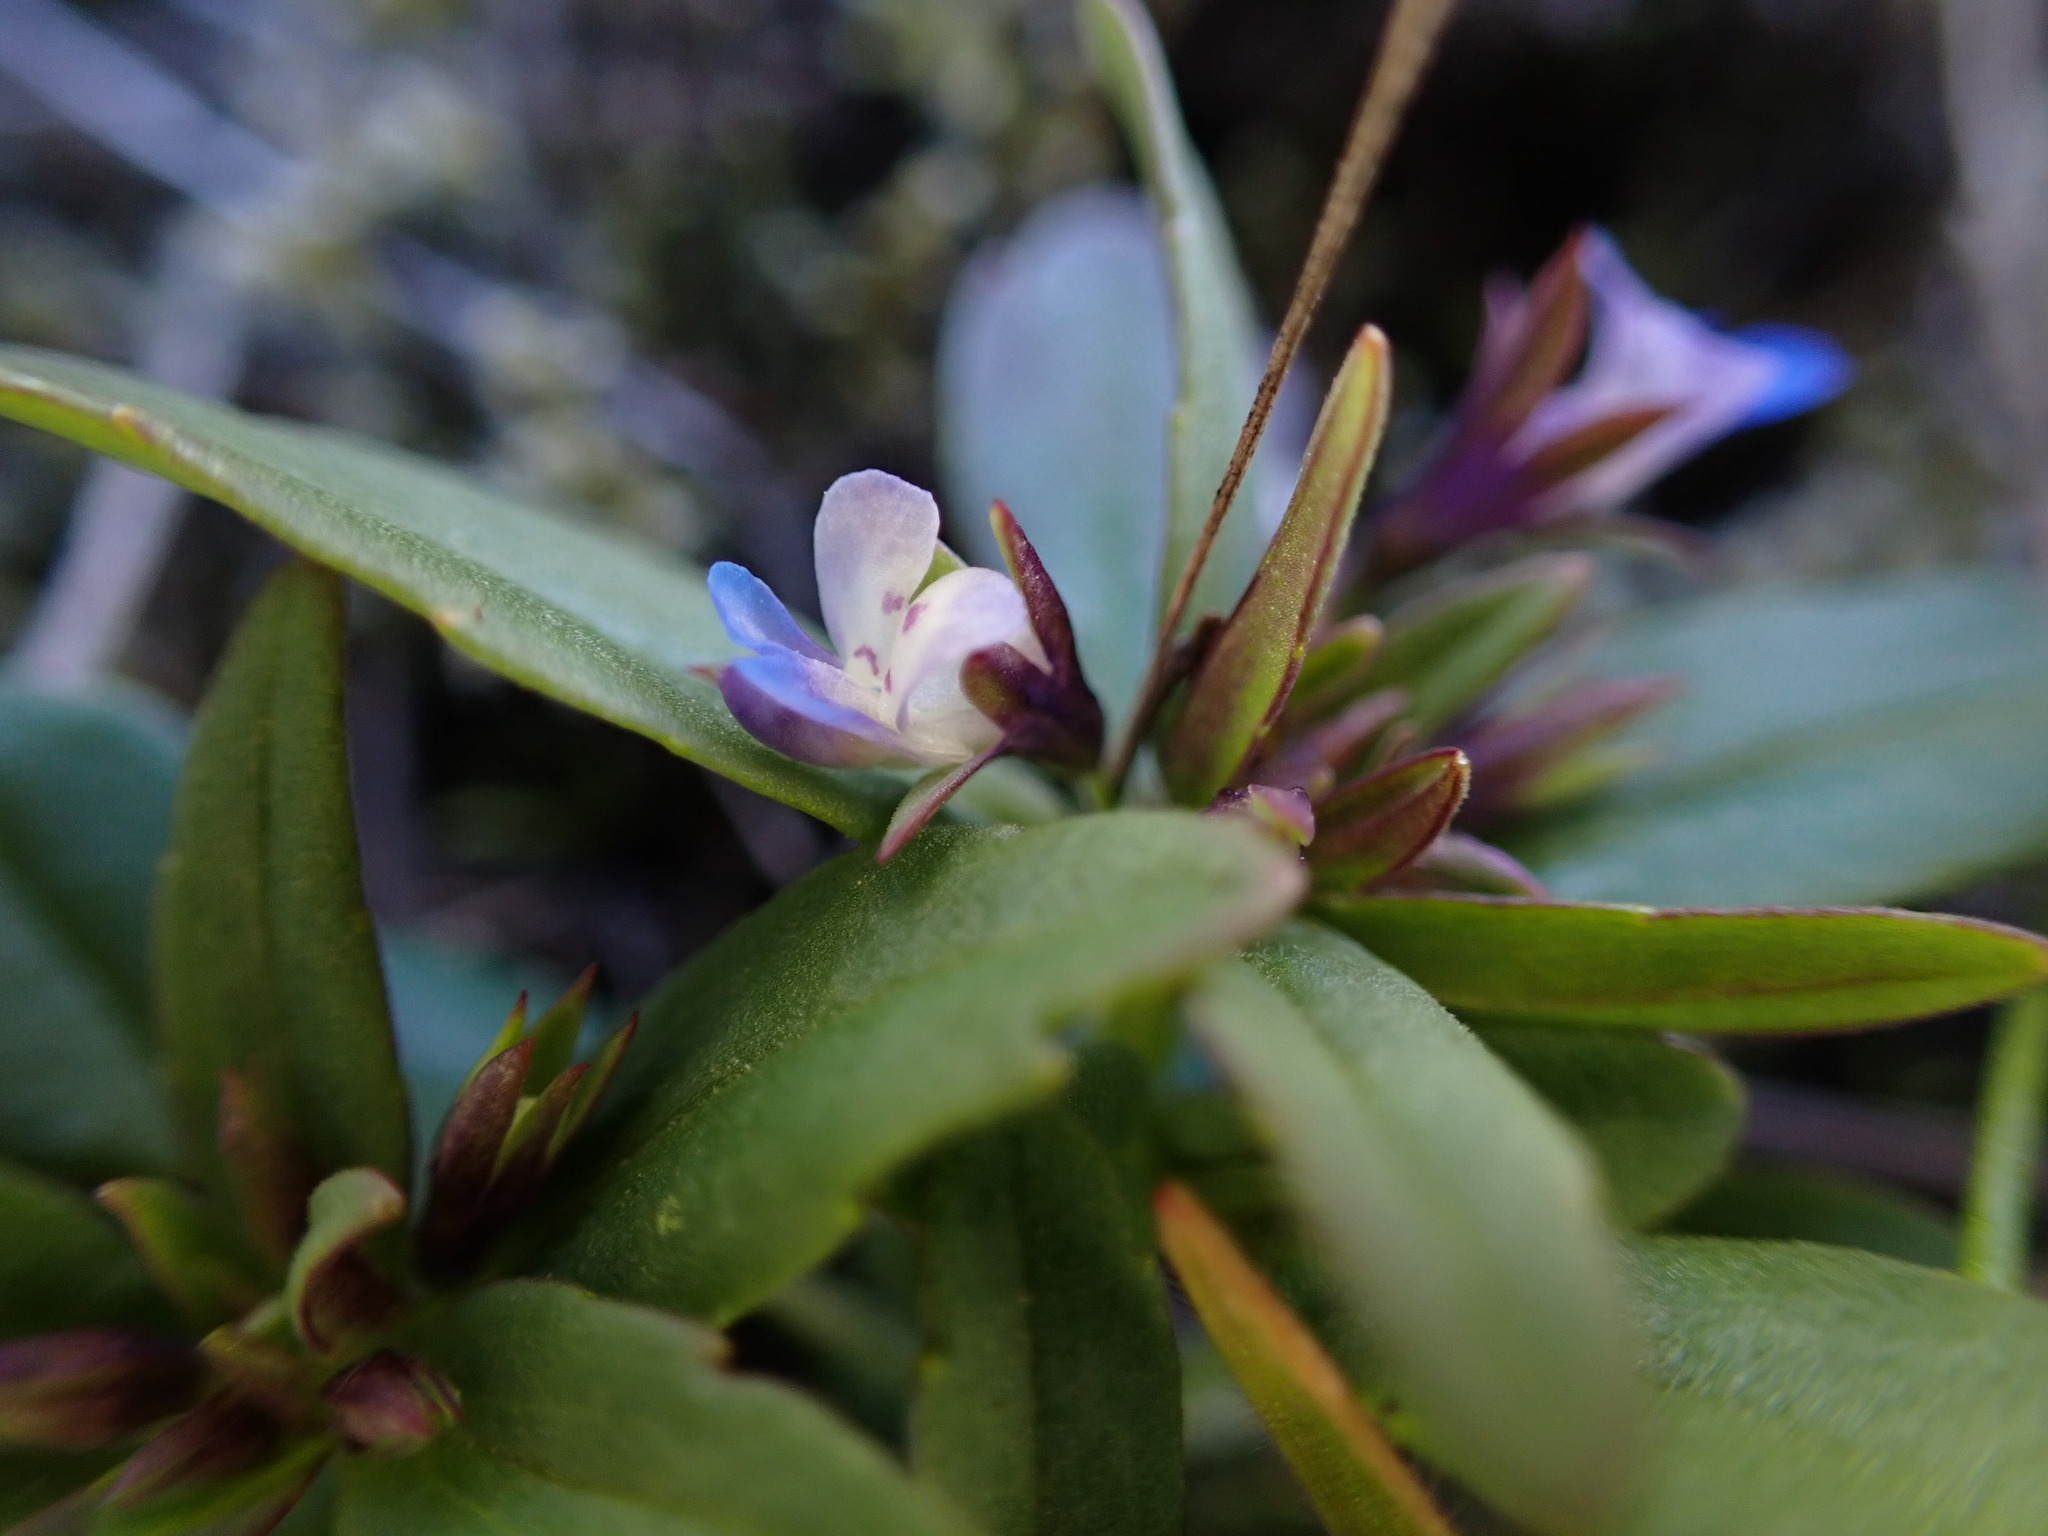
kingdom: Plantae
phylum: Tracheophyta
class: Magnoliopsida
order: Lamiales
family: Plantaginaceae
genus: Collinsia
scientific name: Collinsia parviflora
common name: Blue-lips
